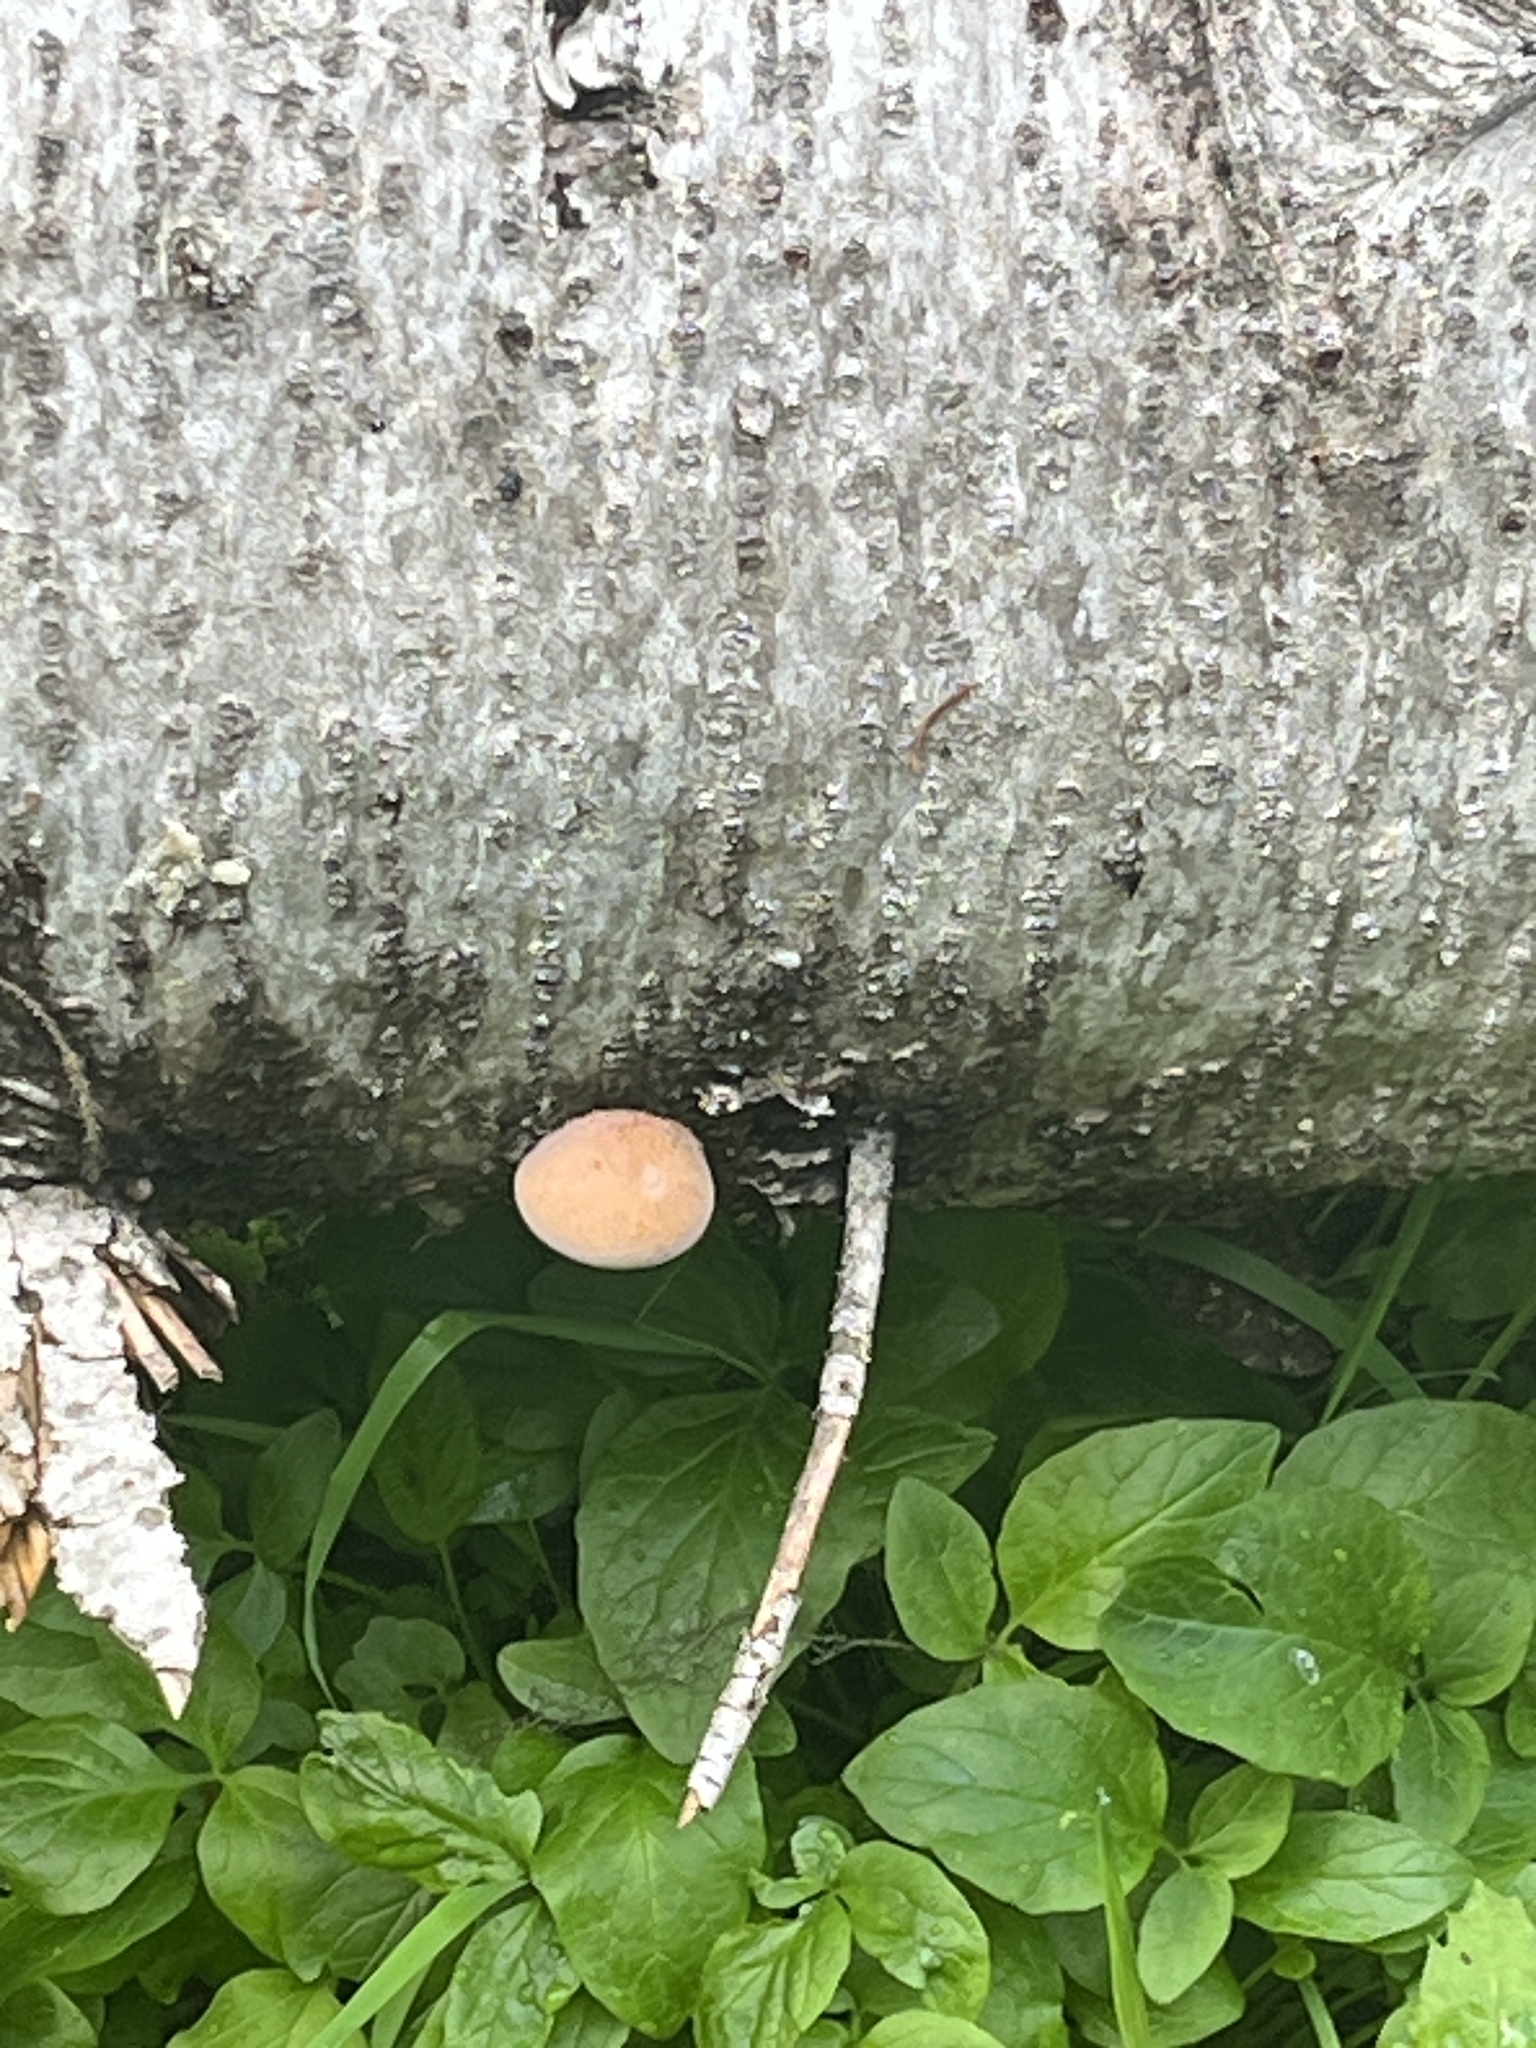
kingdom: Fungi
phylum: Basidiomycota
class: Agaricomycetes
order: Polyporales
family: Polyporaceae
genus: Cryptoporus
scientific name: Cryptoporus volvatus
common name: Veiled polypore
